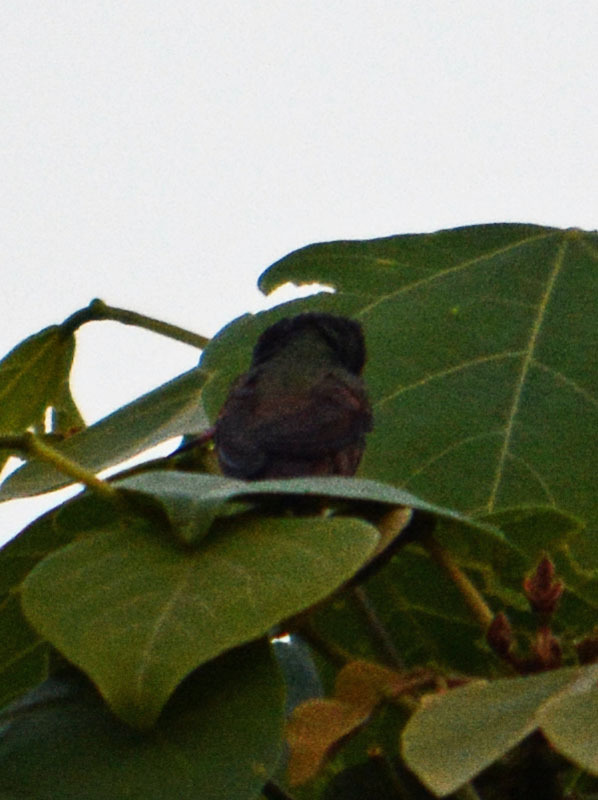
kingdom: Animalia
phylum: Chordata
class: Aves
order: Apodiformes
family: Trochilidae
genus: Saucerottia
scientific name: Saucerottia beryllina
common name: Berylline hummingbird
